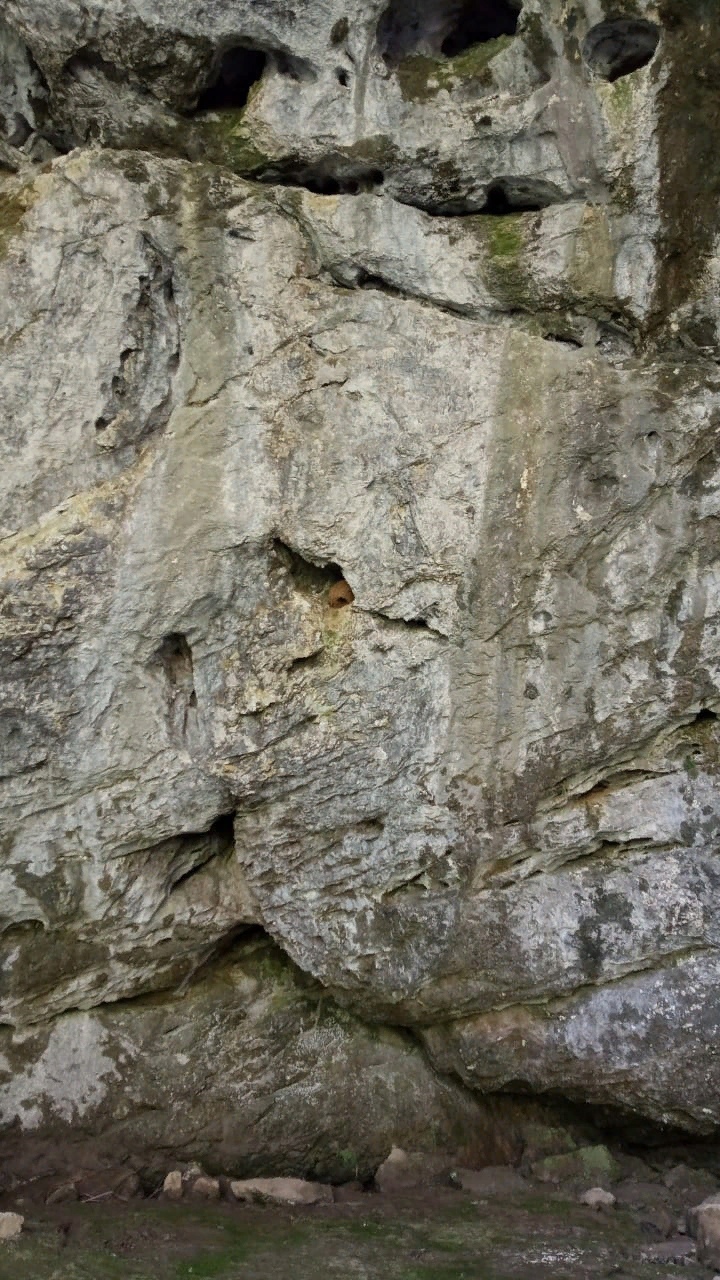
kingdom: Animalia
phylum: Chordata
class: Aves
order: Passeriformes
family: Cinclidae
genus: Cinclus
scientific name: Cinclus cinclus
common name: White-throated dipper
